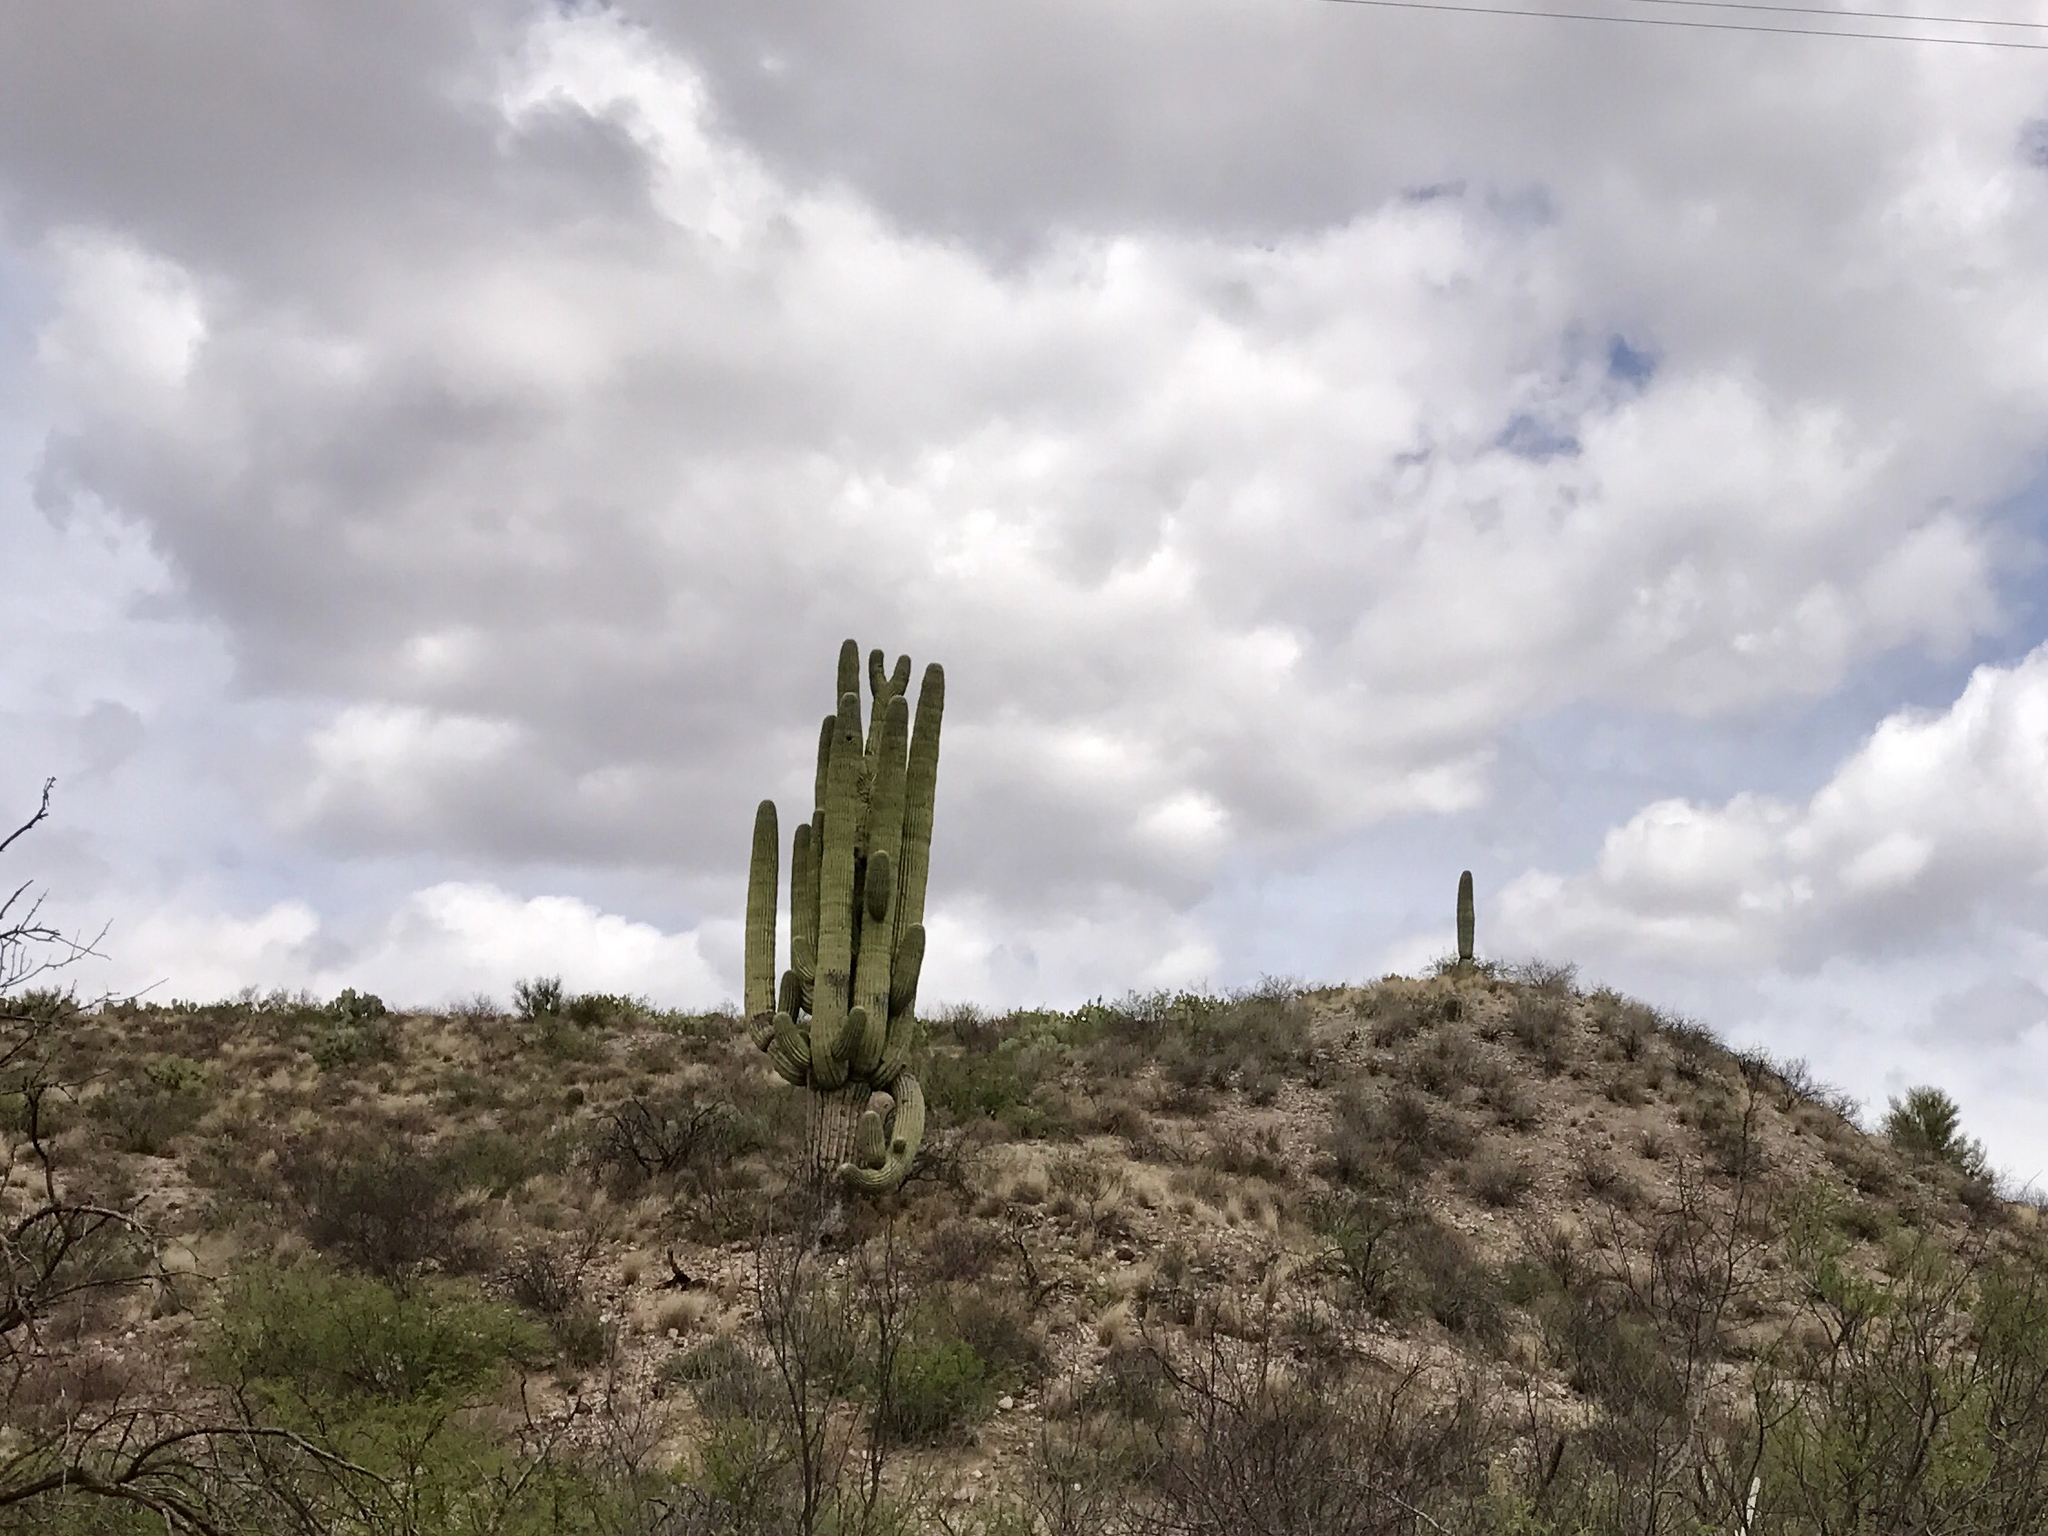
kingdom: Plantae
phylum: Tracheophyta
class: Magnoliopsida
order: Caryophyllales
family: Cactaceae
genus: Carnegiea
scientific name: Carnegiea gigantea
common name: Saguaro
